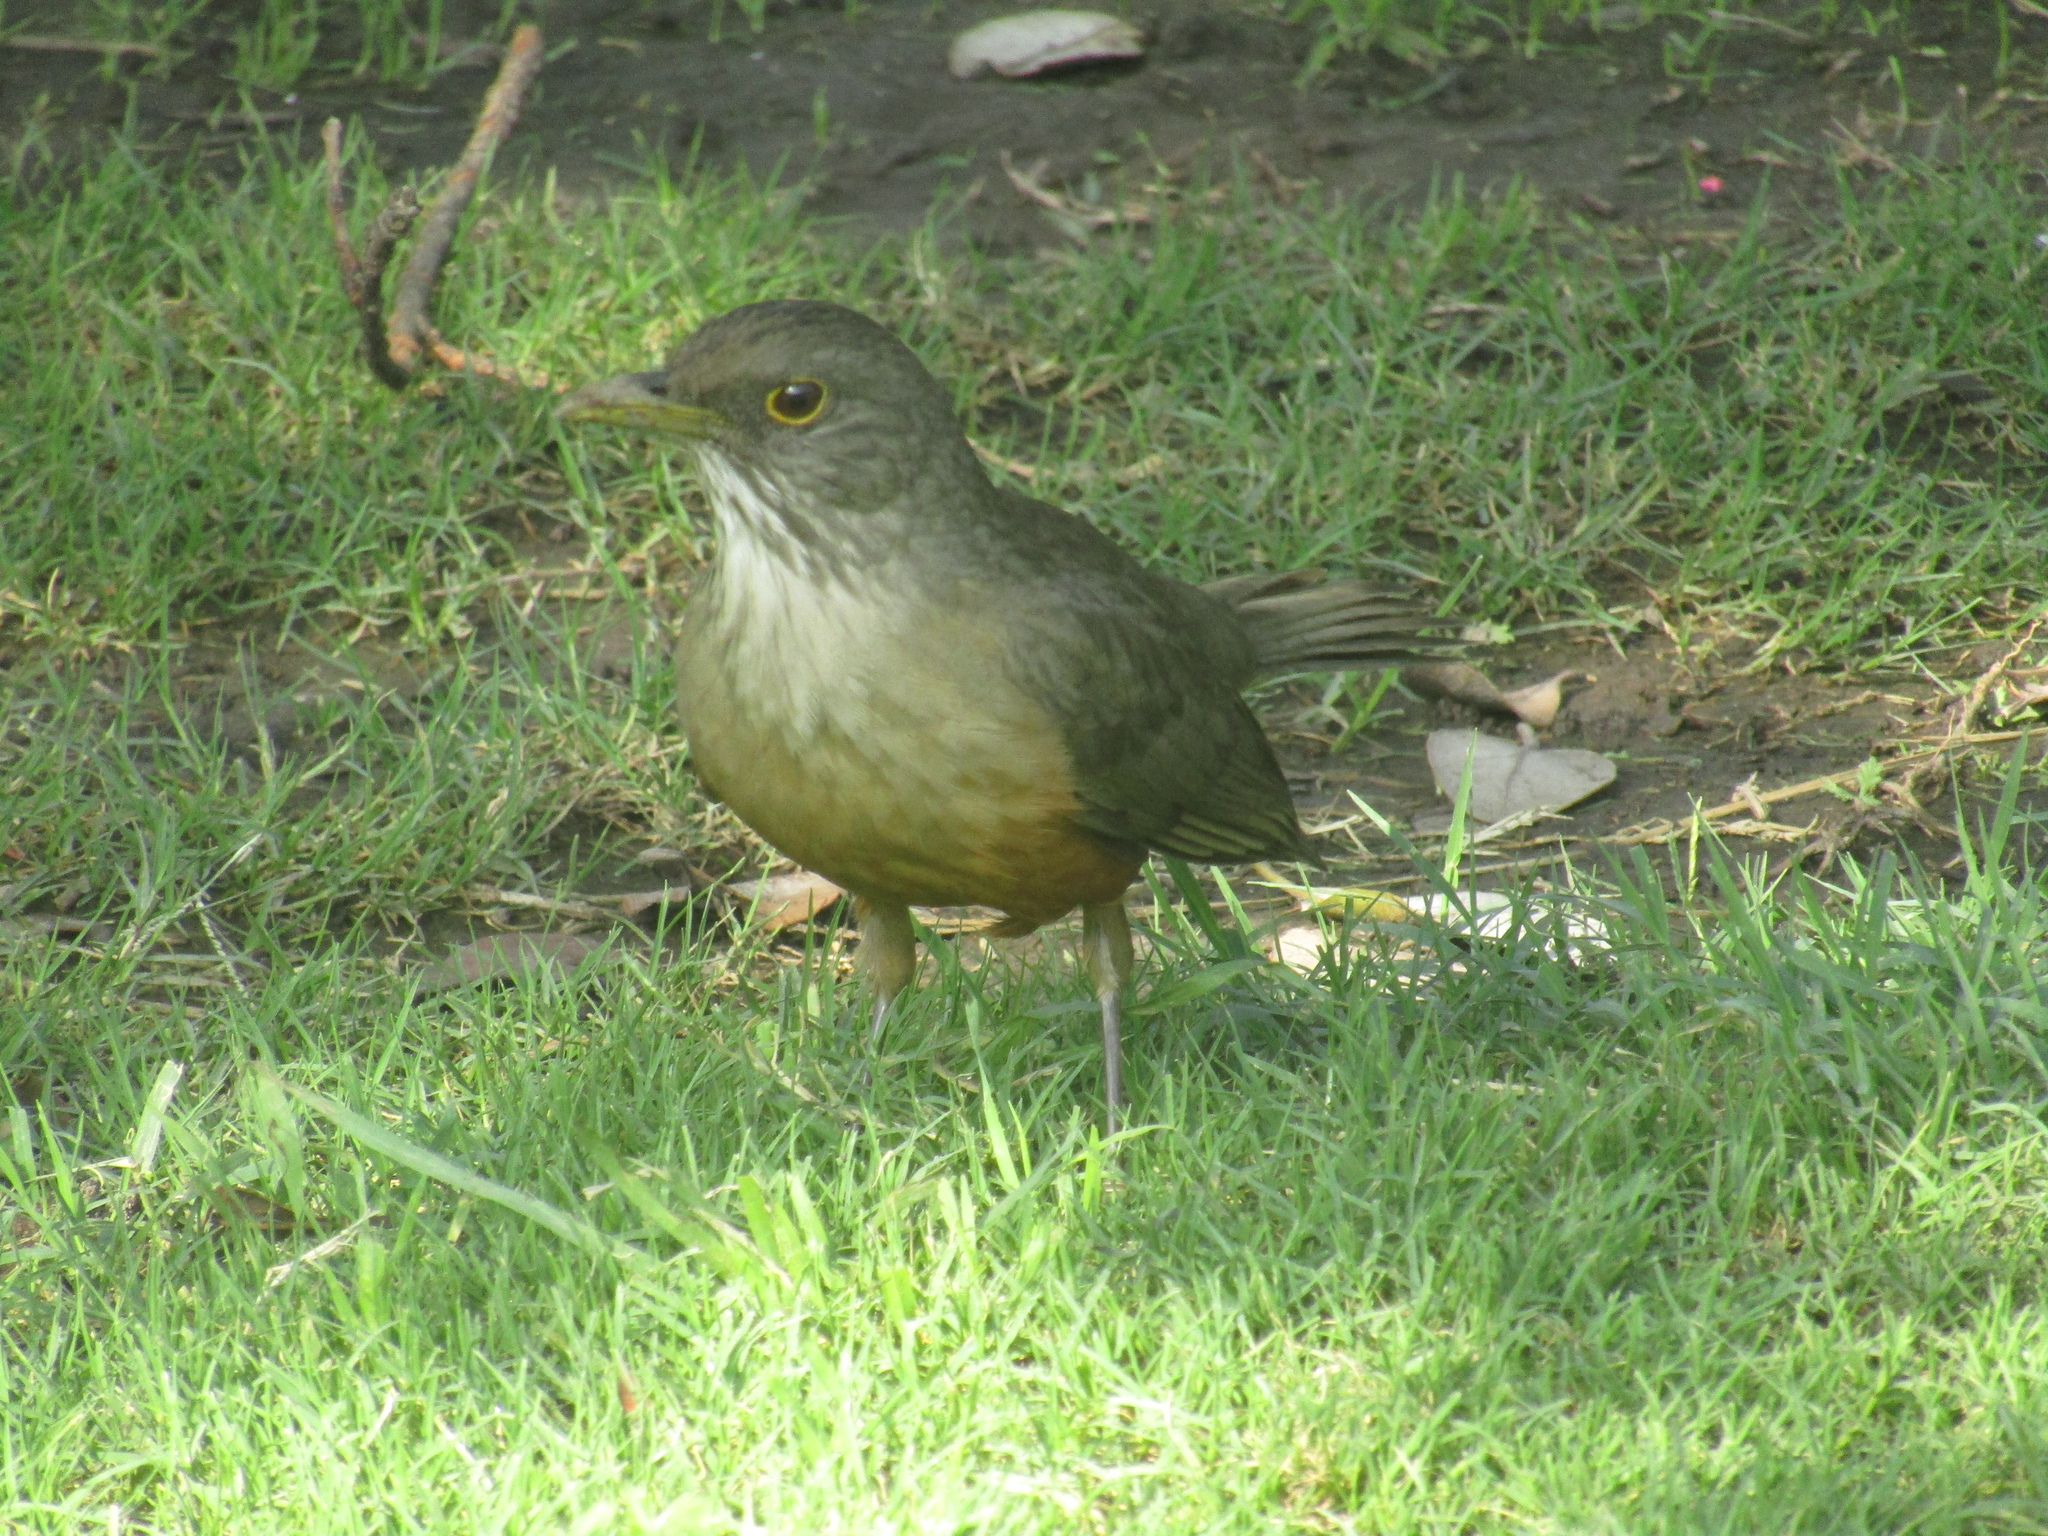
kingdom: Animalia
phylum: Chordata
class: Aves
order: Passeriformes
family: Turdidae
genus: Turdus
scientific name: Turdus rufiventris
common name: Rufous-bellied thrush
